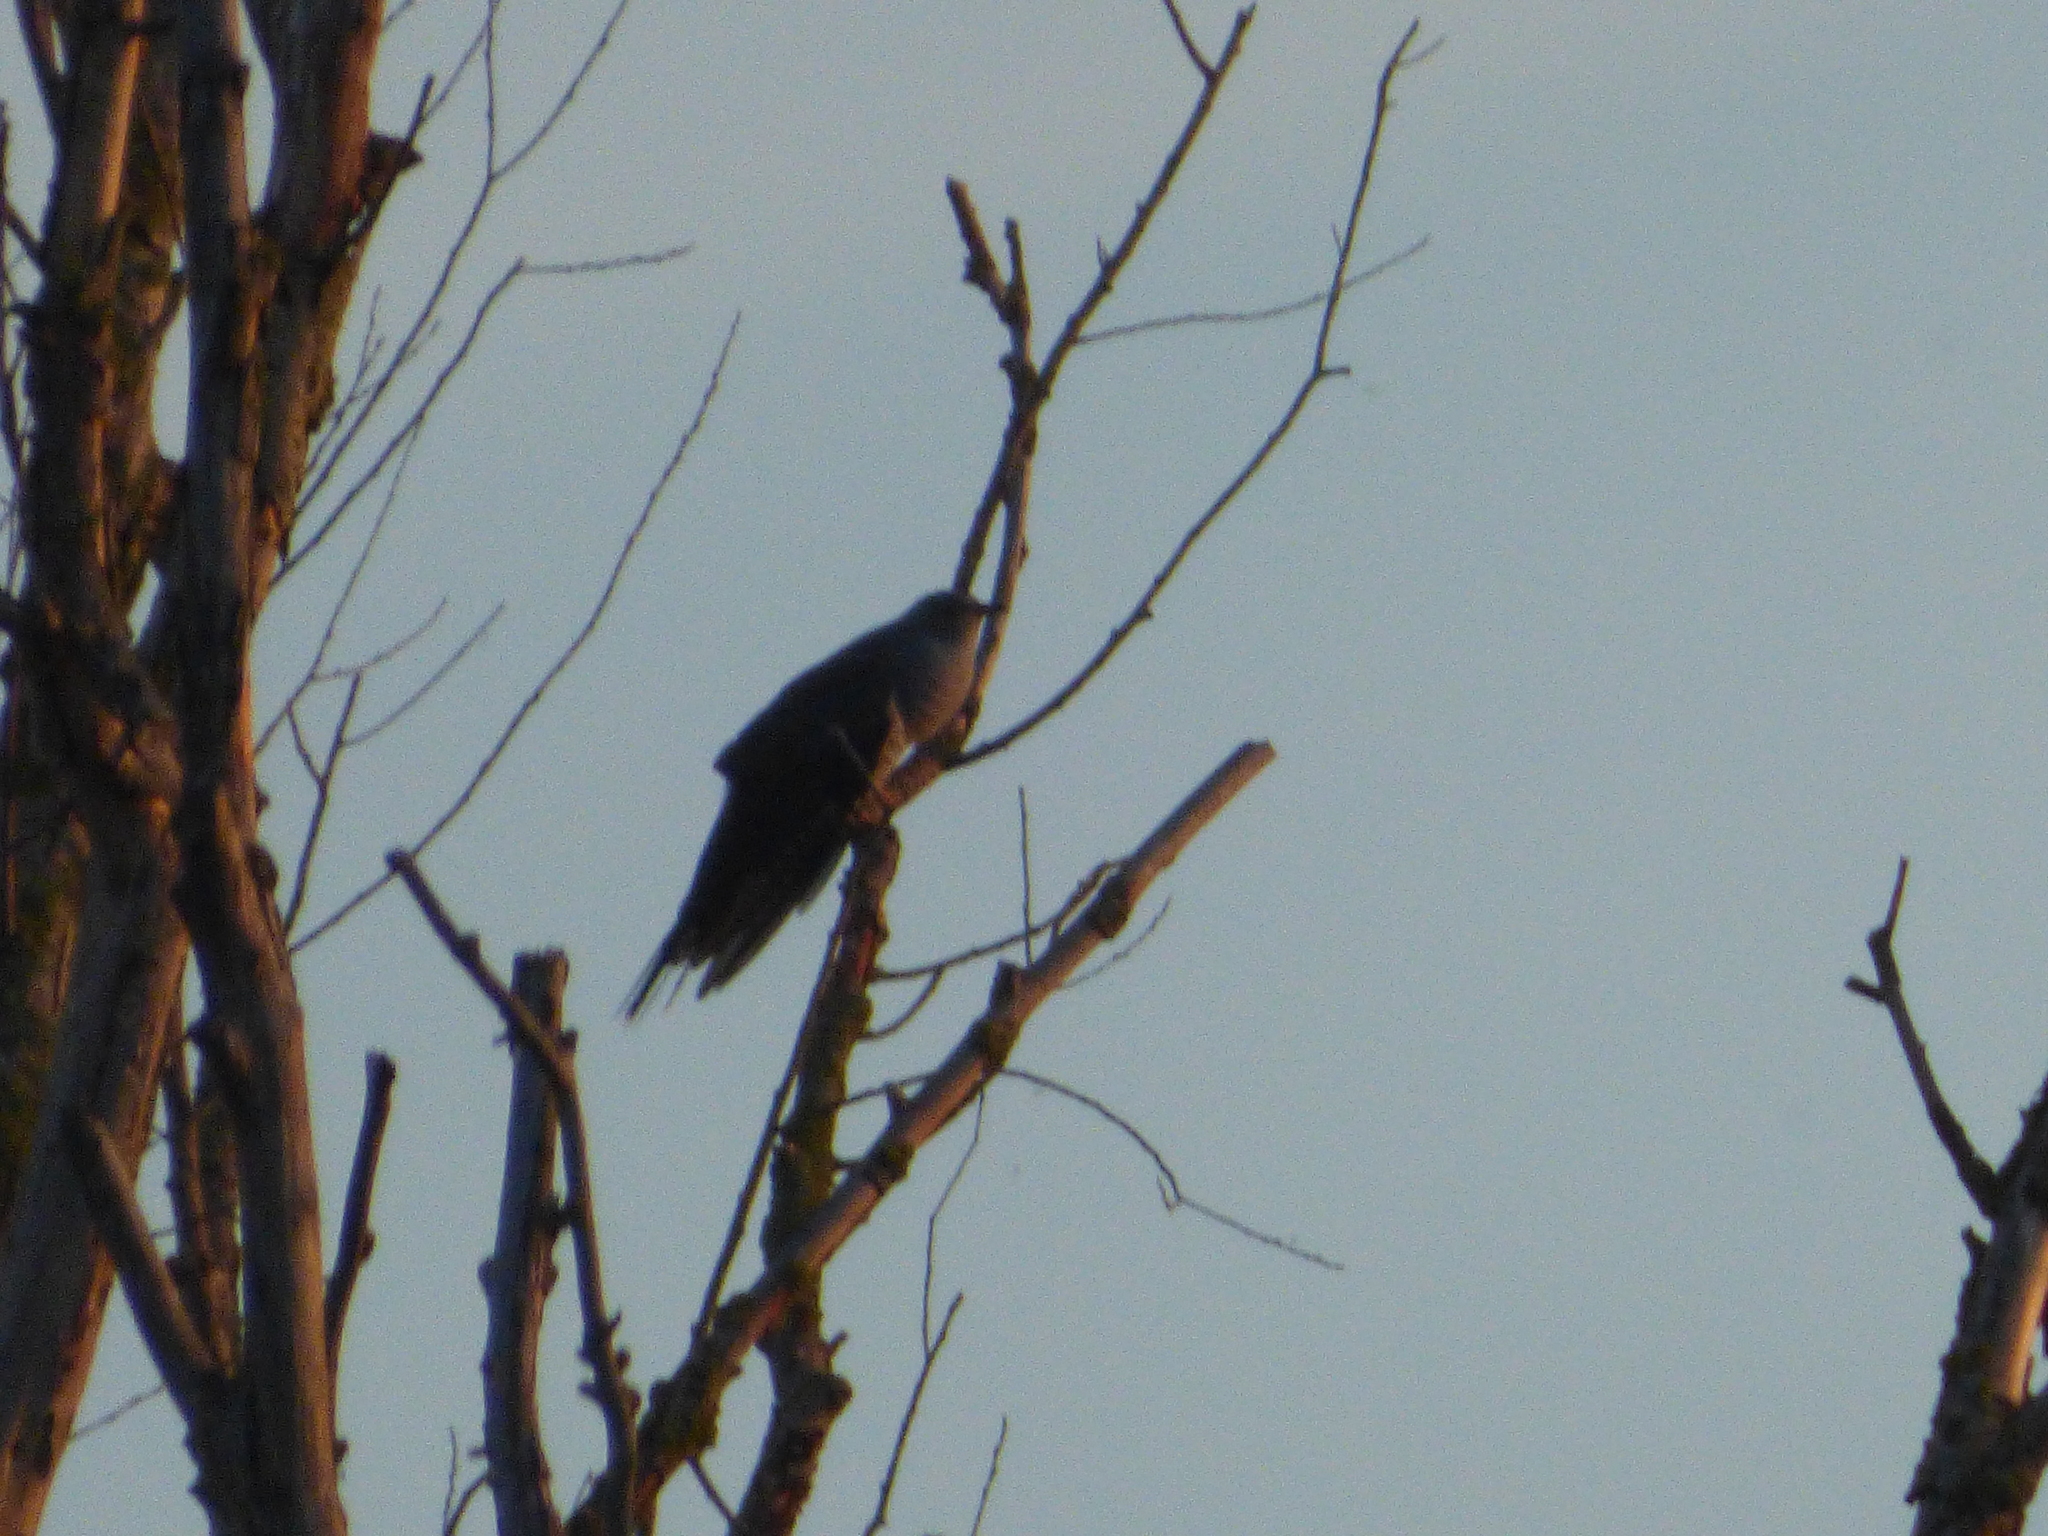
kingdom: Animalia
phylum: Chordata
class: Aves
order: Cuculiformes
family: Cuculidae
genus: Cuculus
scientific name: Cuculus canorus
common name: Common cuckoo
